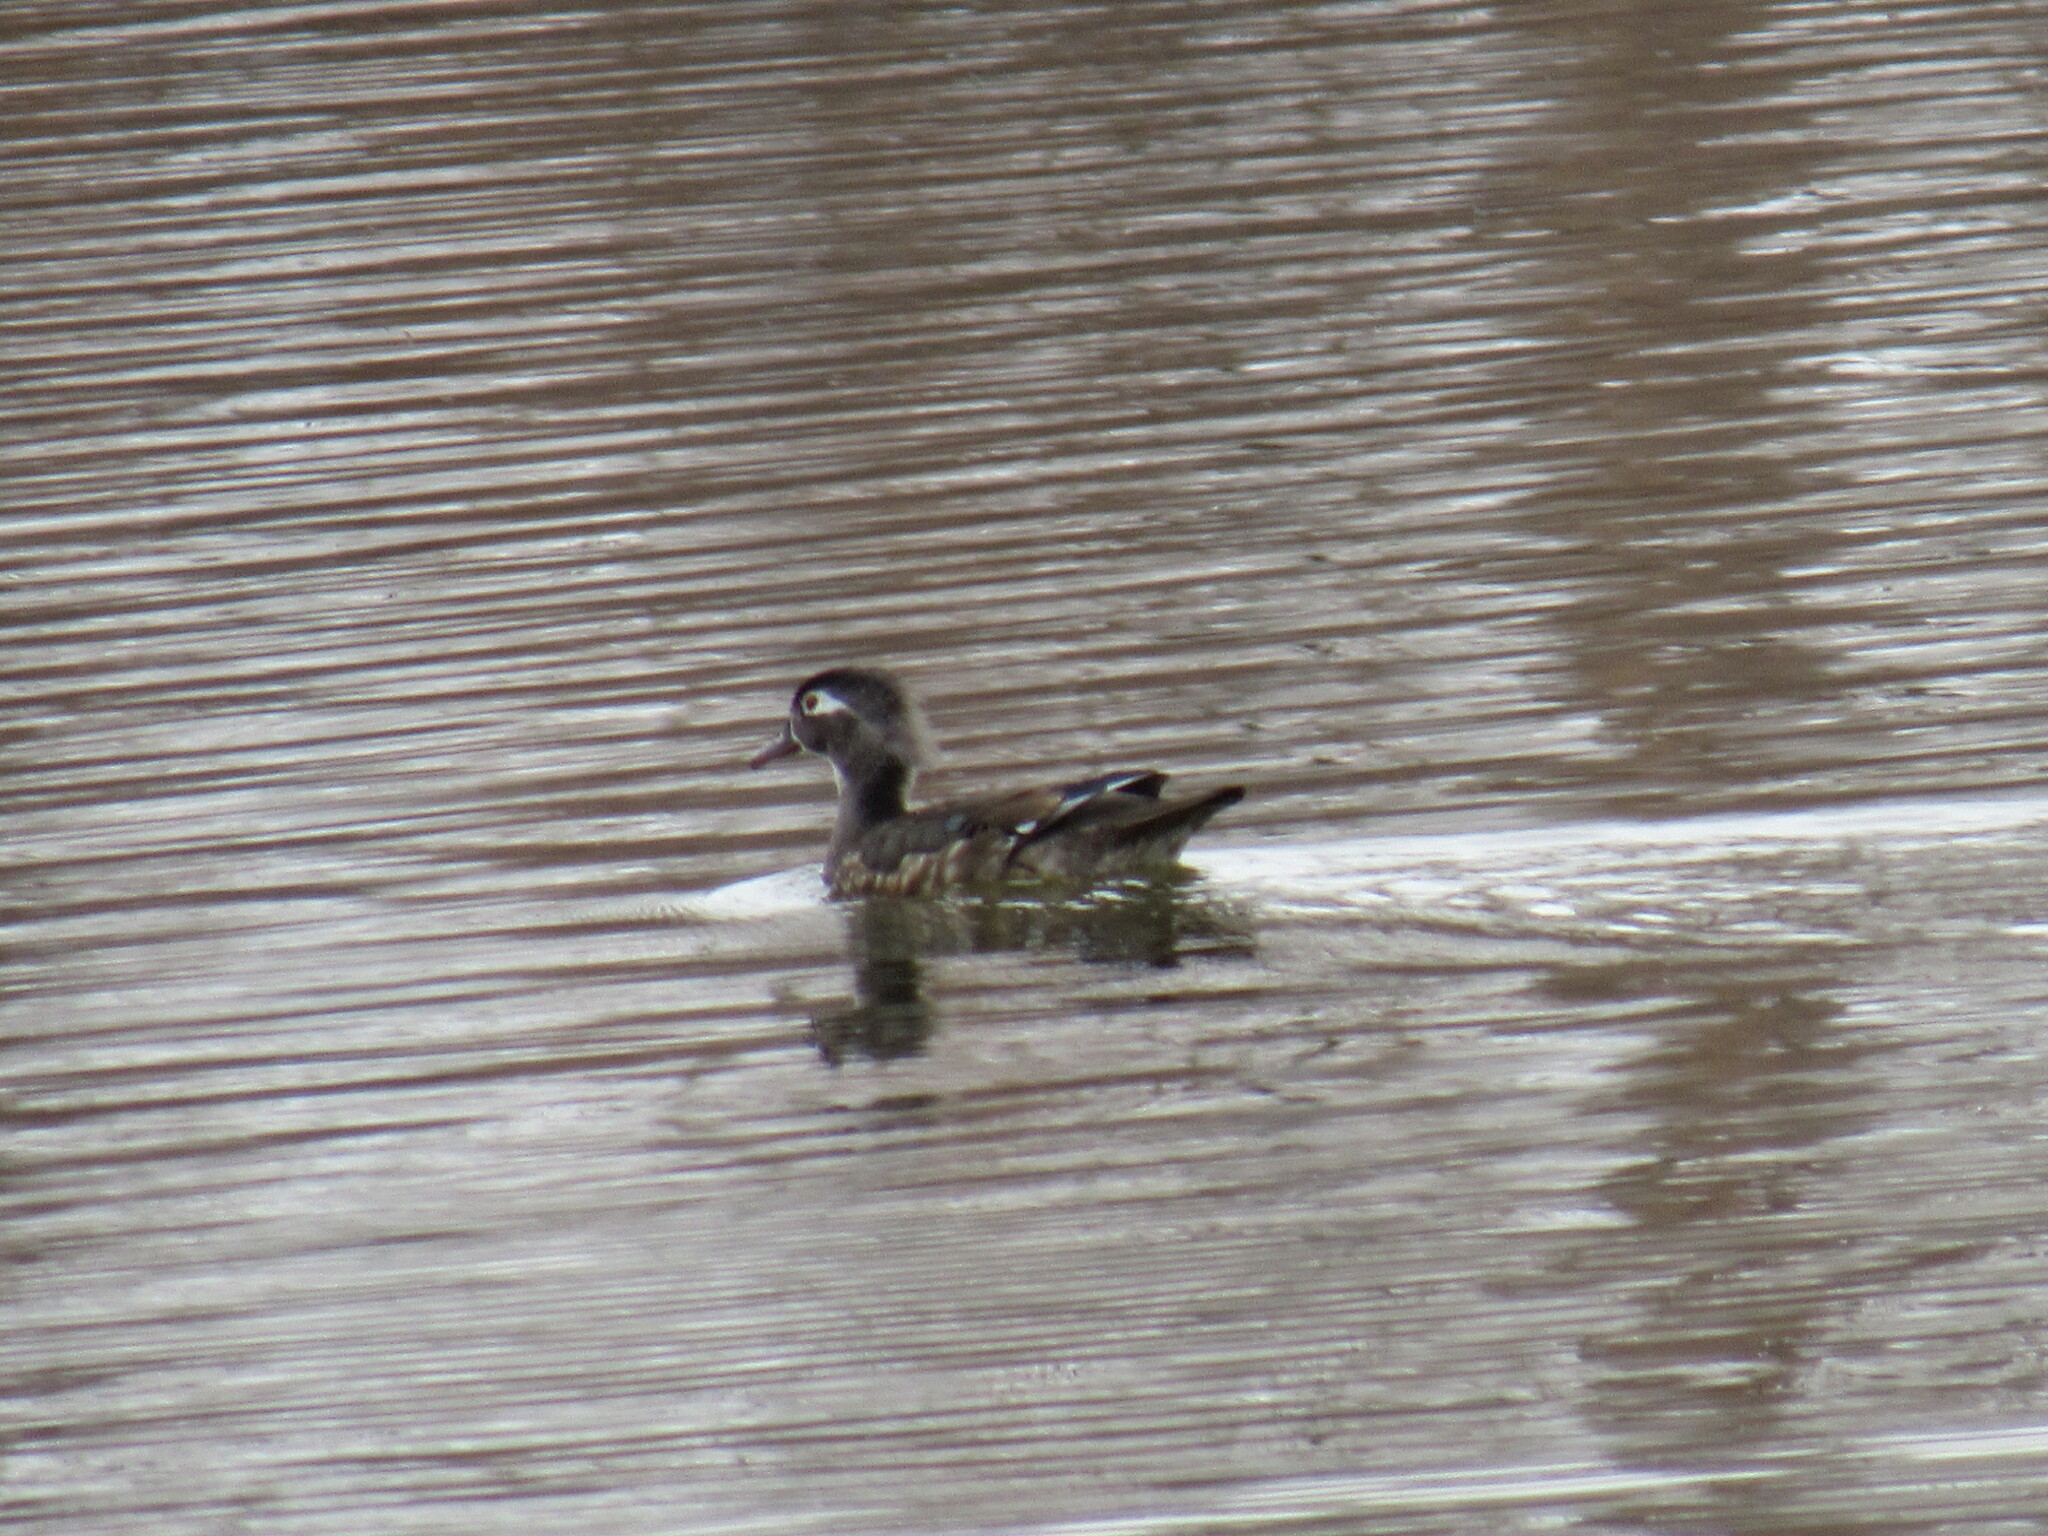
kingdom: Animalia
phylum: Chordata
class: Aves
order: Anseriformes
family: Anatidae
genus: Aix
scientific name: Aix sponsa
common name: Wood duck
